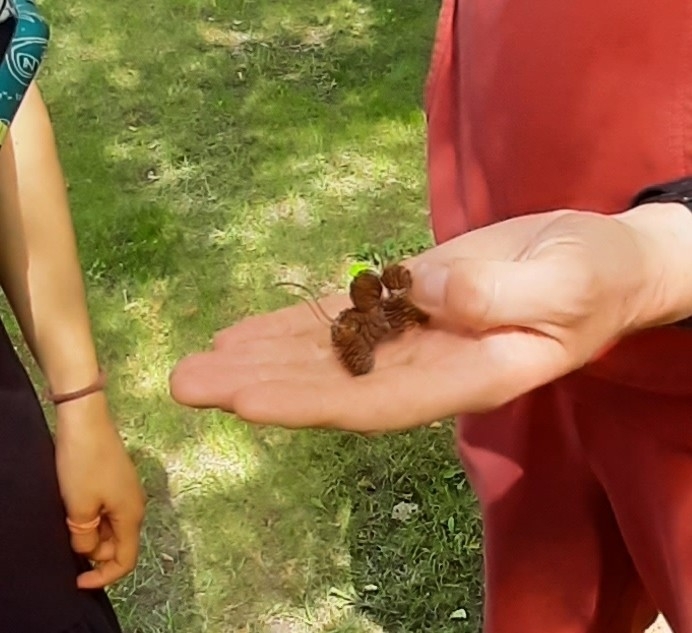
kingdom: Plantae
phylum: Tracheophyta
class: Magnoliopsida
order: Fagales
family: Betulaceae
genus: Alnus
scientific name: Alnus incana
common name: Grey alder
